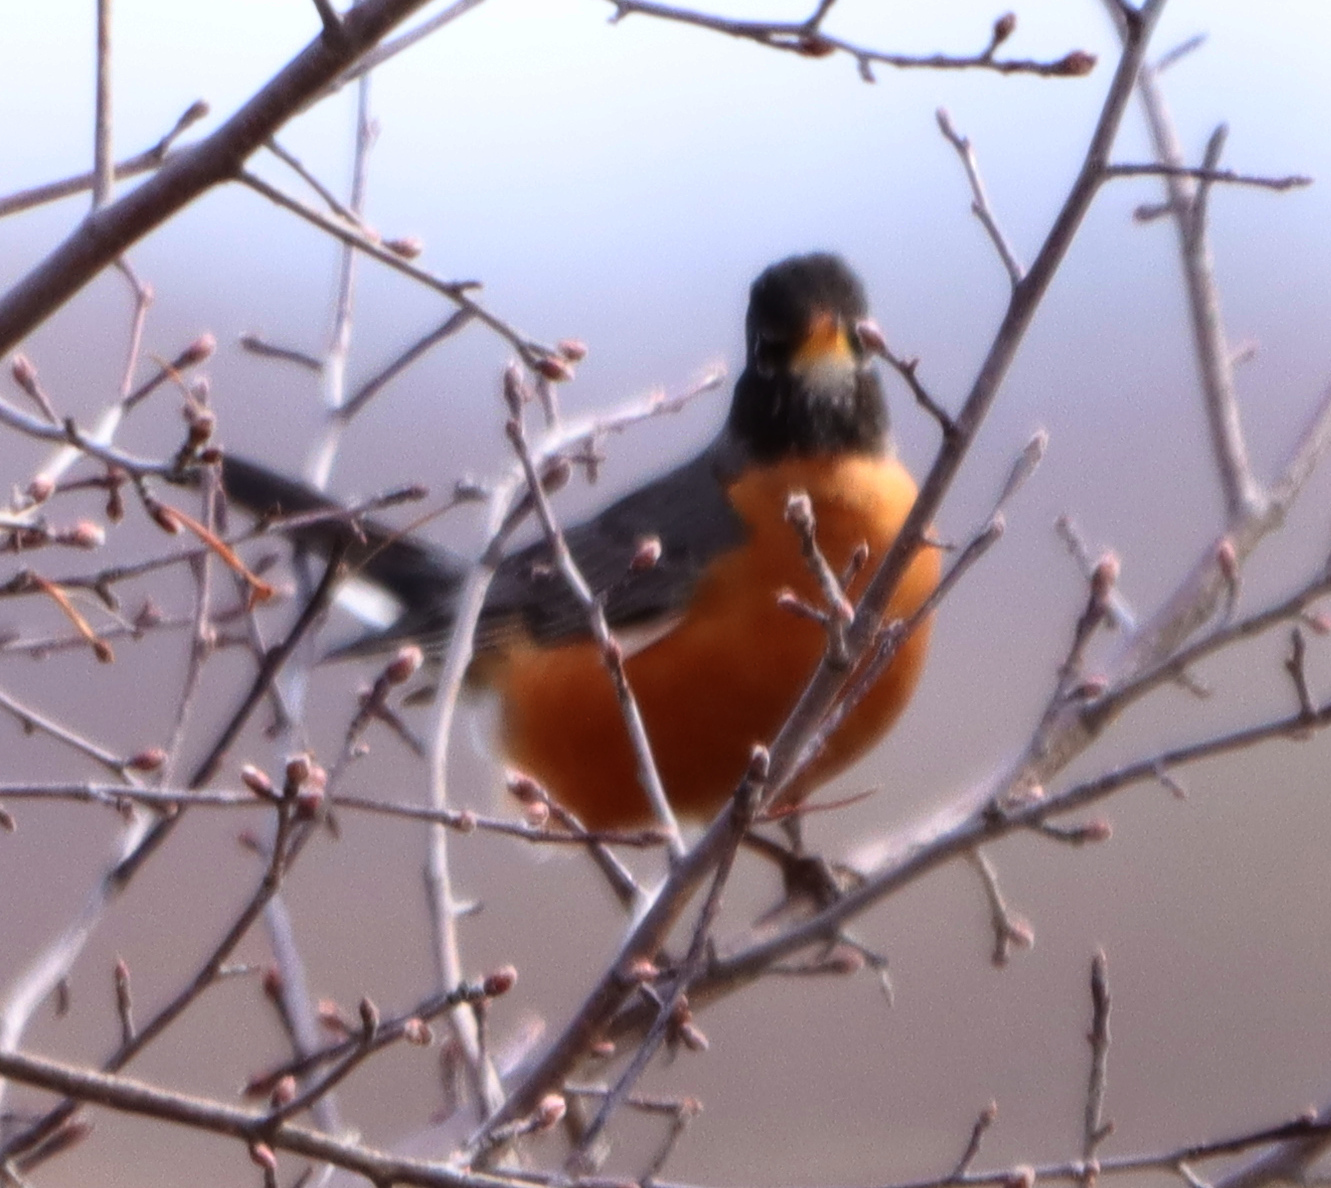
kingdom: Animalia
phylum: Chordata
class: Aves
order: Passeriformes
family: Turdidae
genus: Turdus
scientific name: Turdus migratorius
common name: American robin
